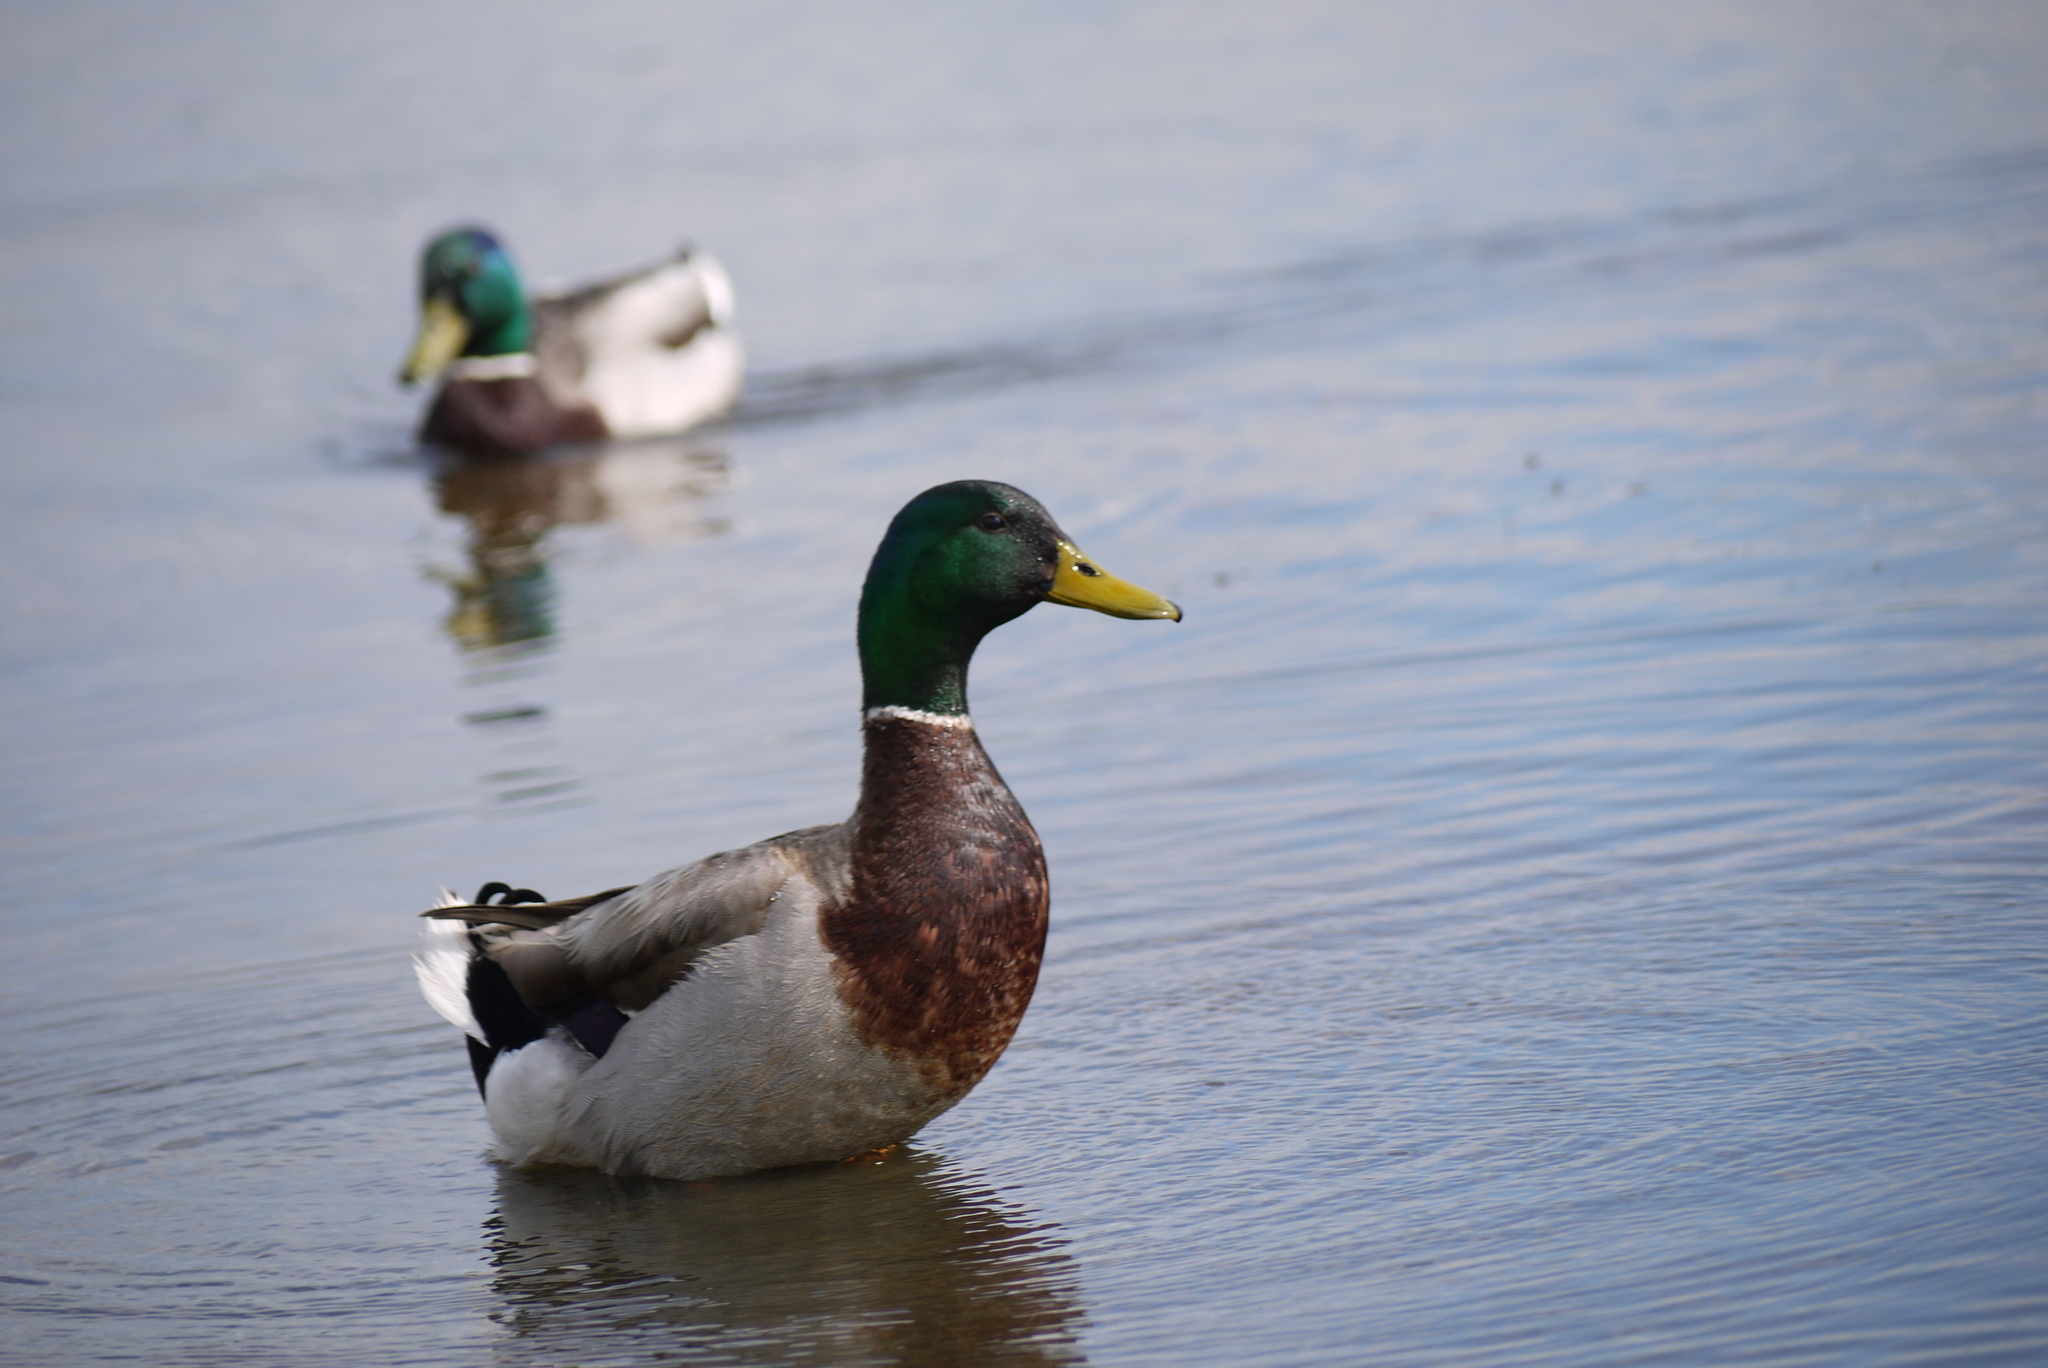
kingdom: Animalia
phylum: Chordata
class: Aves
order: Anseriformes
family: Anatidae
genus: Anas
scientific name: Anas platyrhynchos
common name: Mallard
